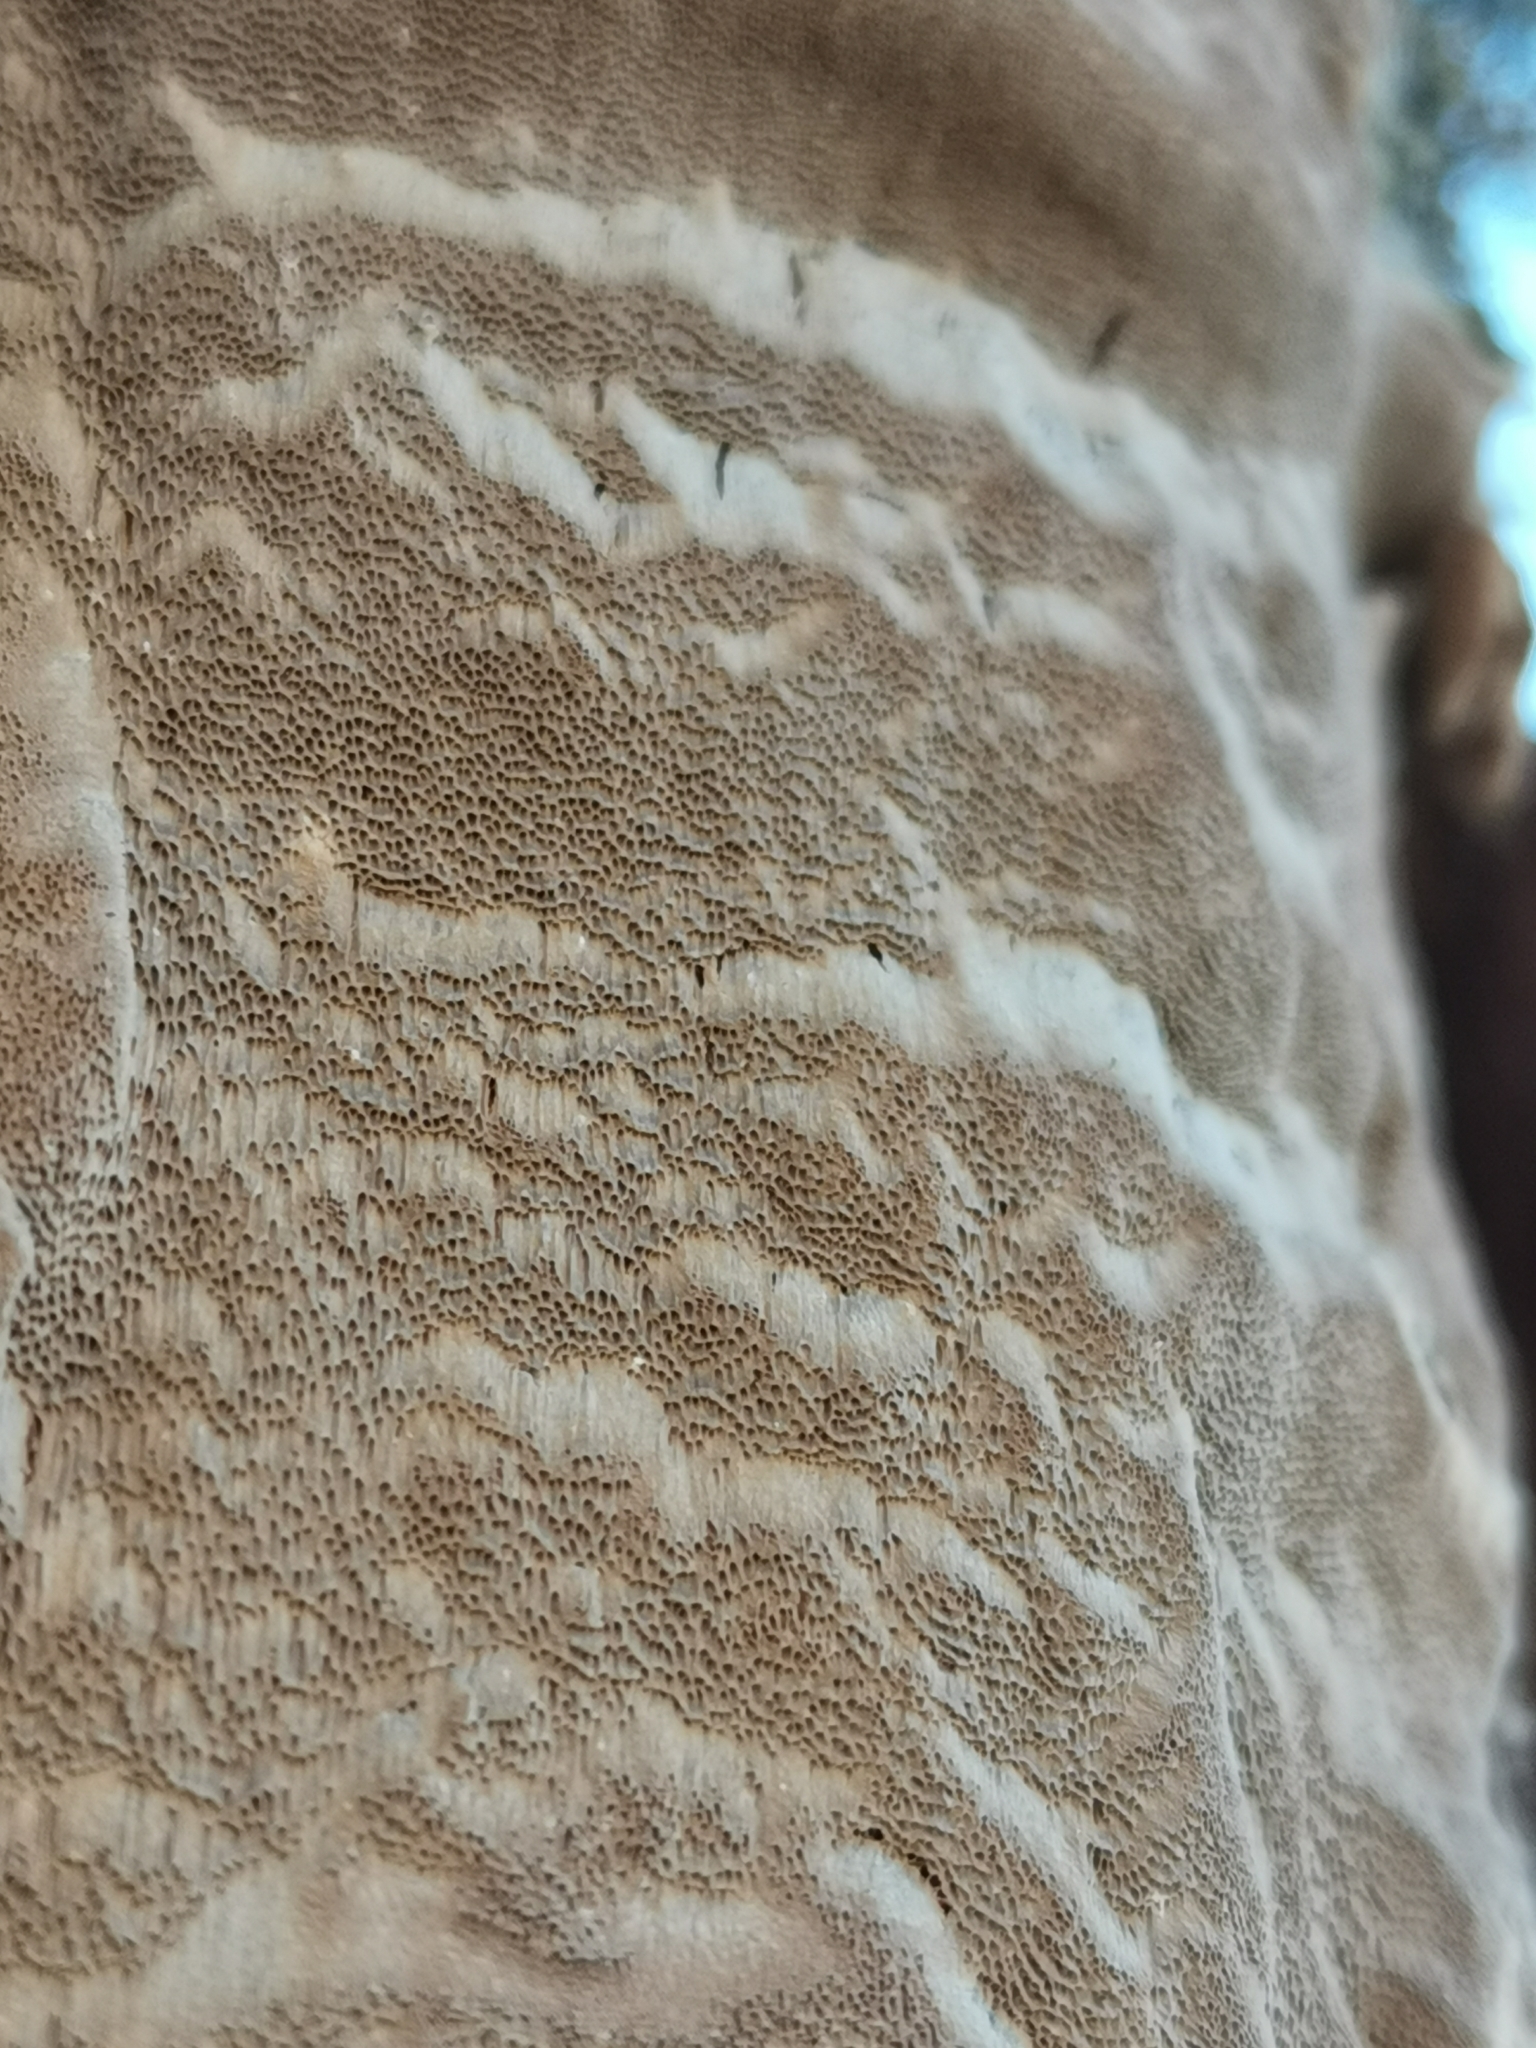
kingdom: Fungi
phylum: Basidiomycota
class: Agaricomycetes
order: Hymenochaetales
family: Hymenochaetaceae
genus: Phellinus
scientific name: Phellinus laevigatus
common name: Smooth bristle bracket
